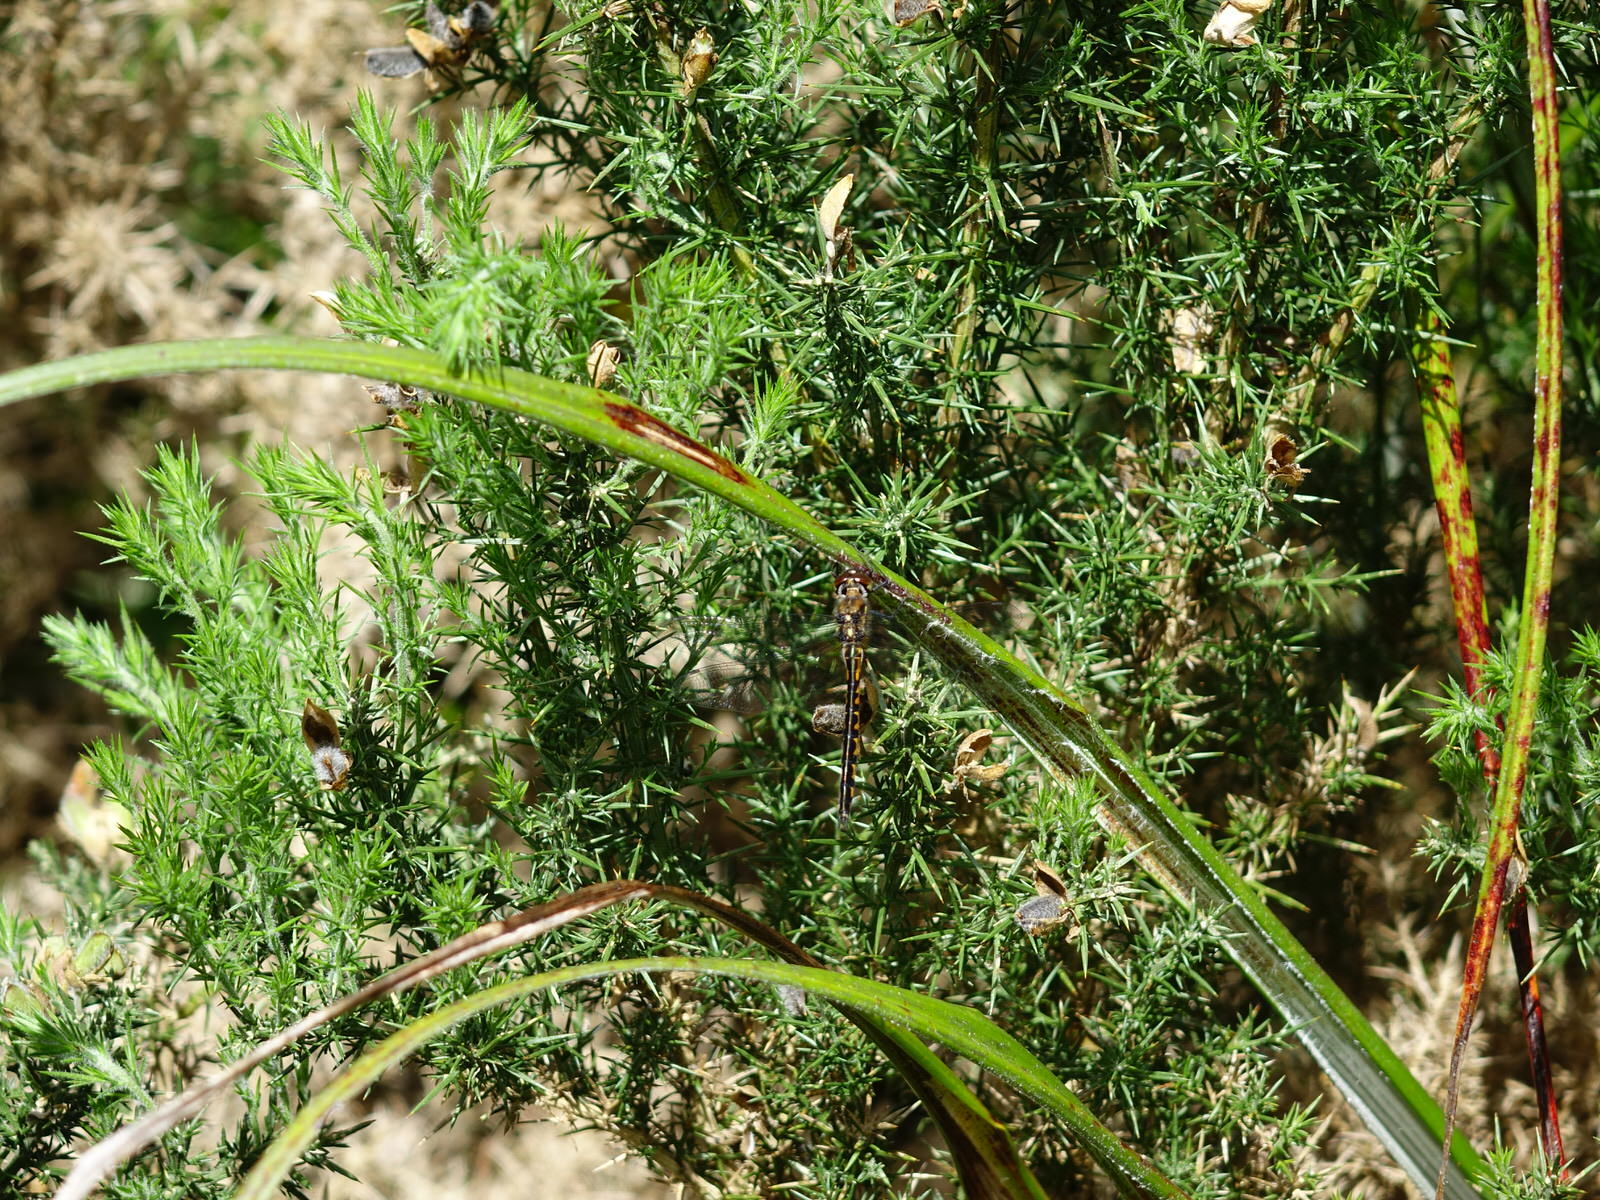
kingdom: Animalia
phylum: Arthropoda
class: Insecta
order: Odonata
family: Corduliidae
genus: Hemicordulia
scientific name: Hemicordulia australiae
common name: Sentry dragonfly
